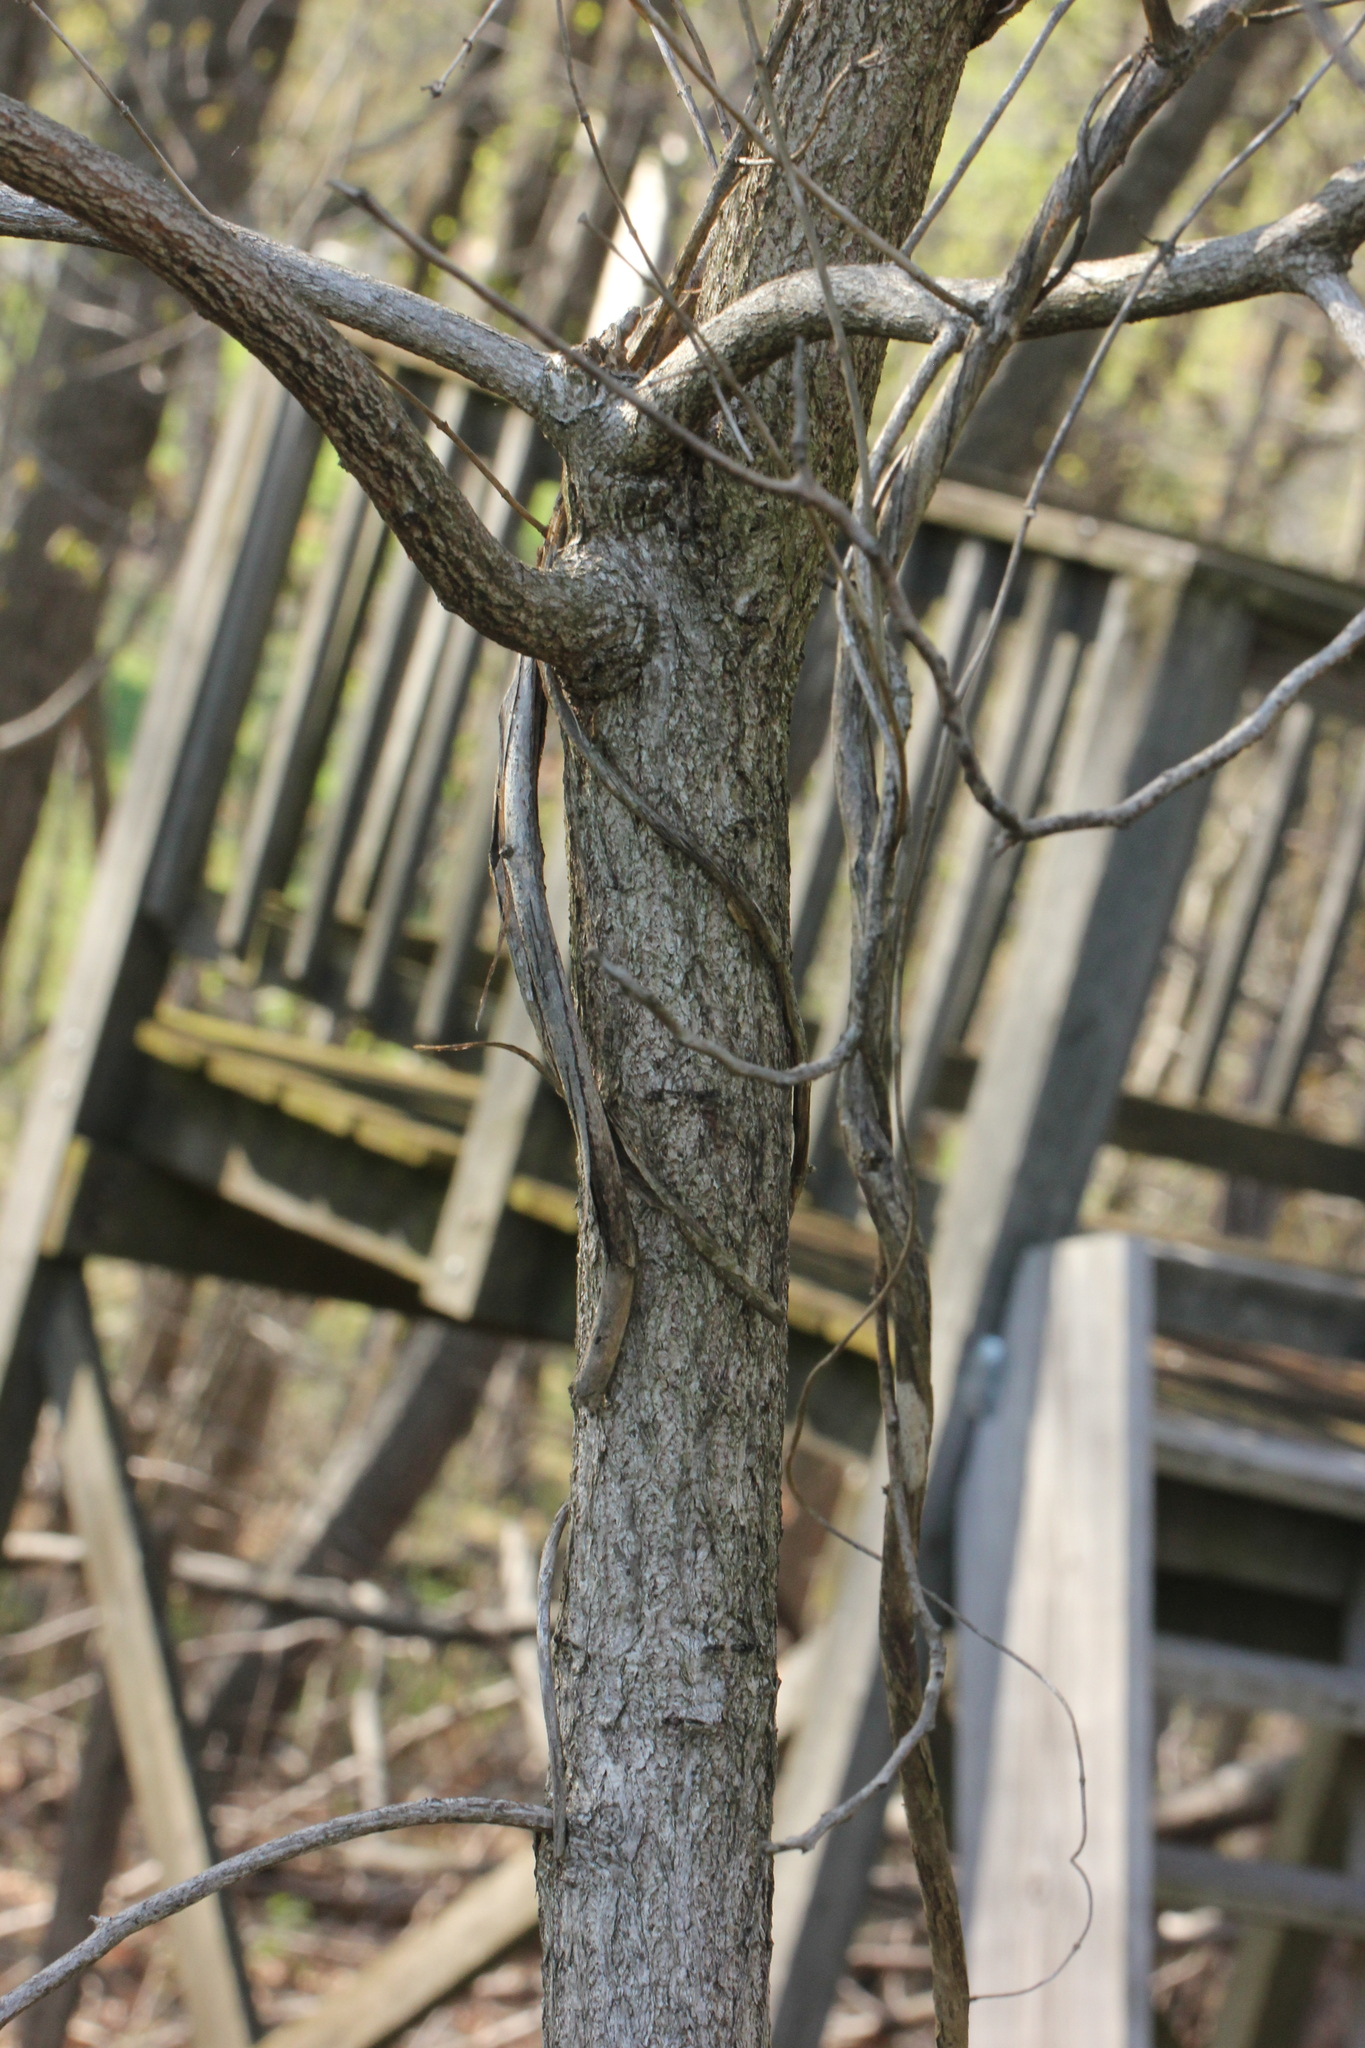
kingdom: Plantae
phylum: Tracheophyta
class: Magnoliopsida
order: Laurales
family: Lauraceae
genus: Sassafras
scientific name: Sassafras albidum
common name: Sassafras
